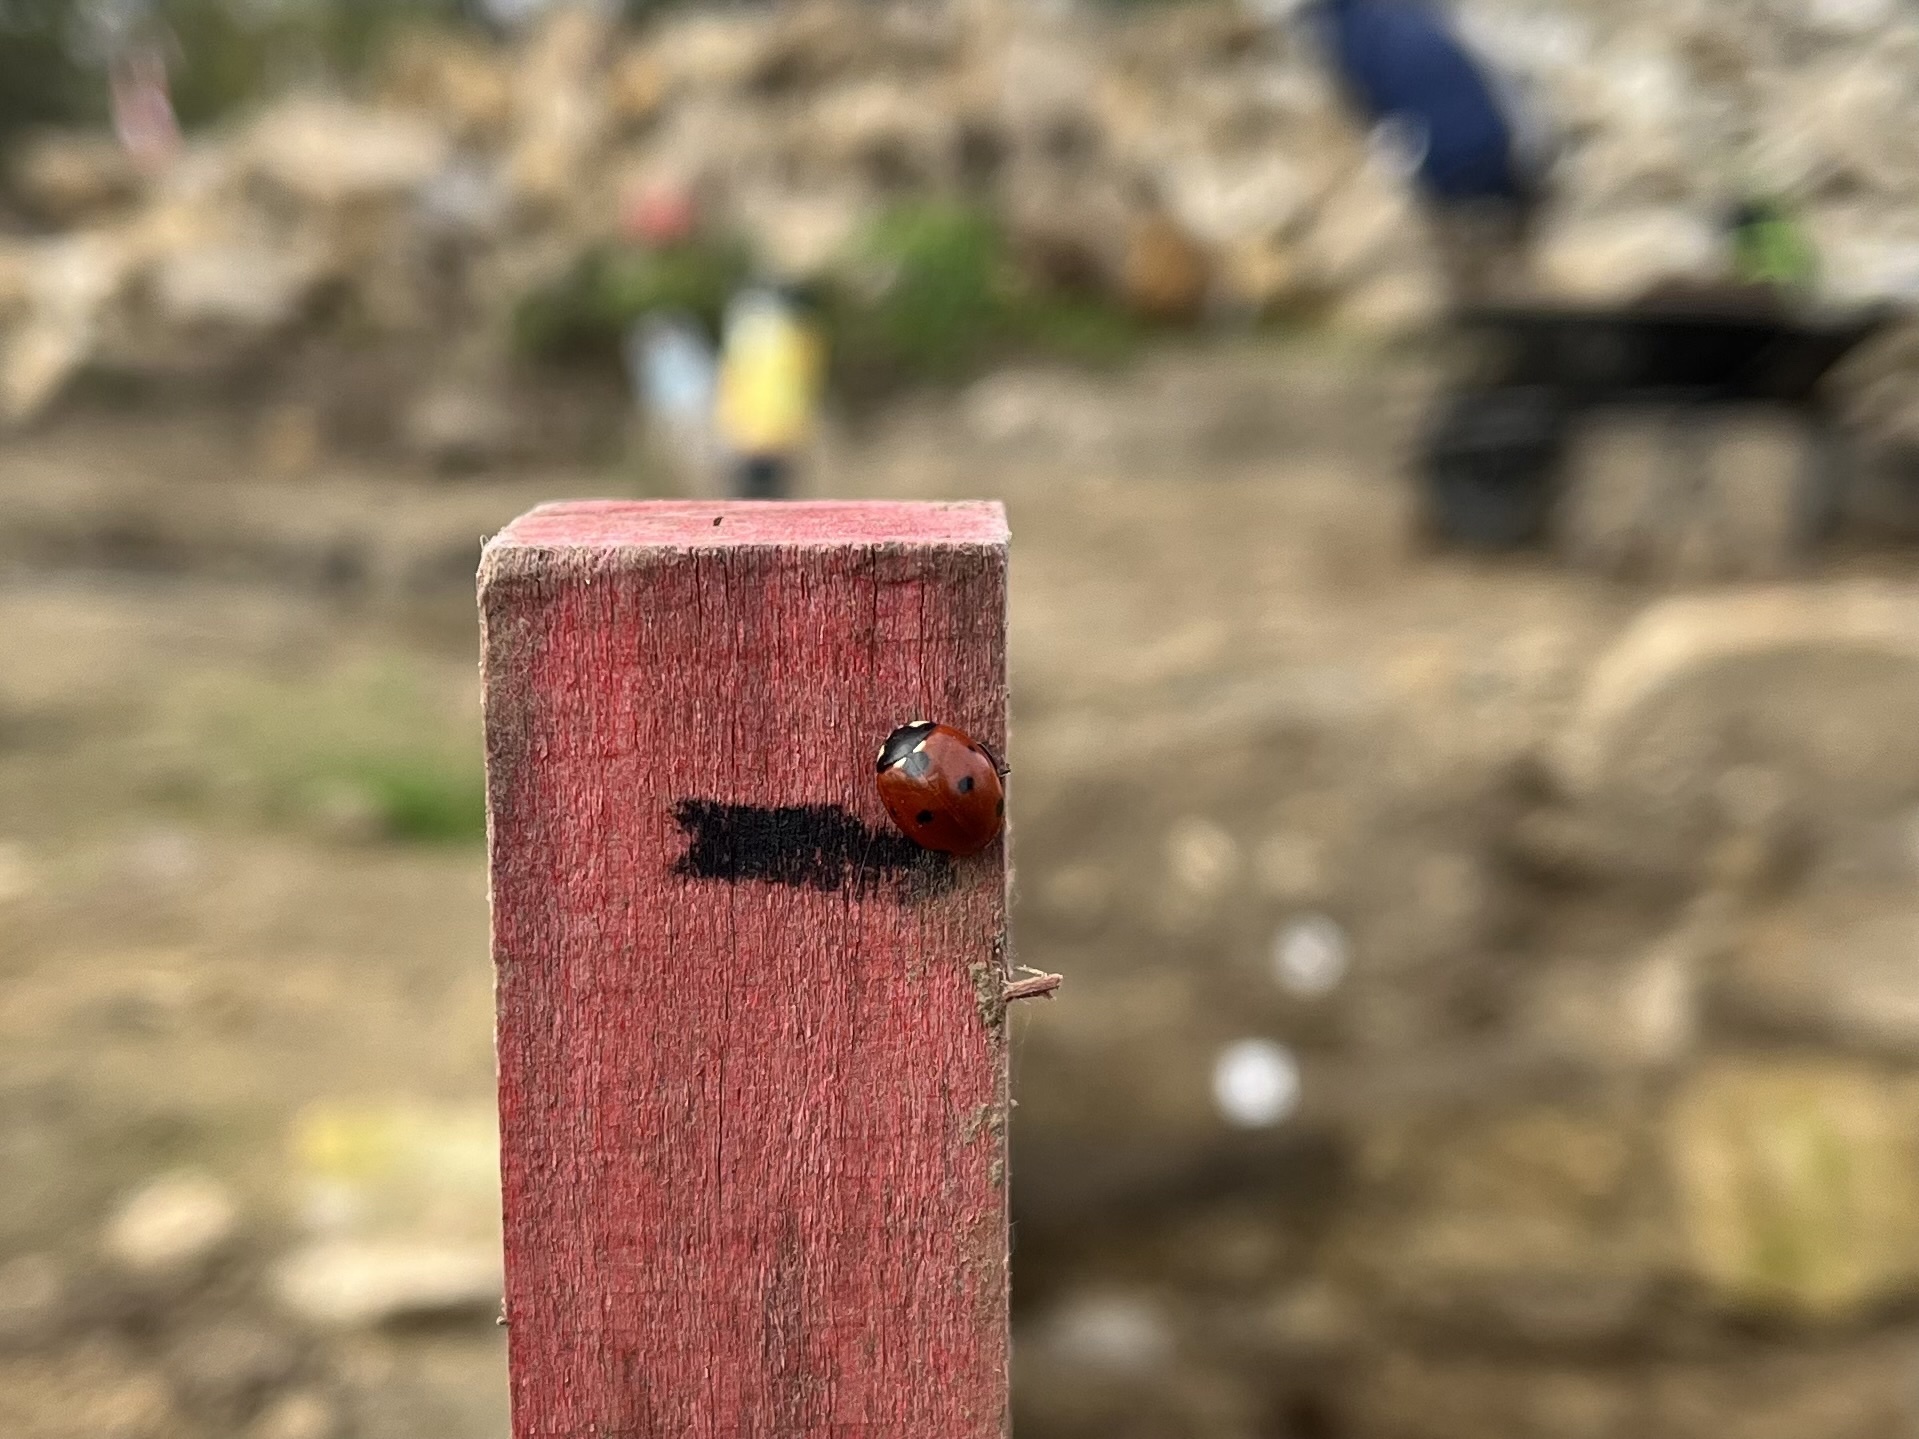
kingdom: Animalia
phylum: Arthropoda
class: Insecta
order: Coleoptera
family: Coccinellidae
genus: Coccinella
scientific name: Coccinella septempunctata
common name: Sevenspotted lady beetle
